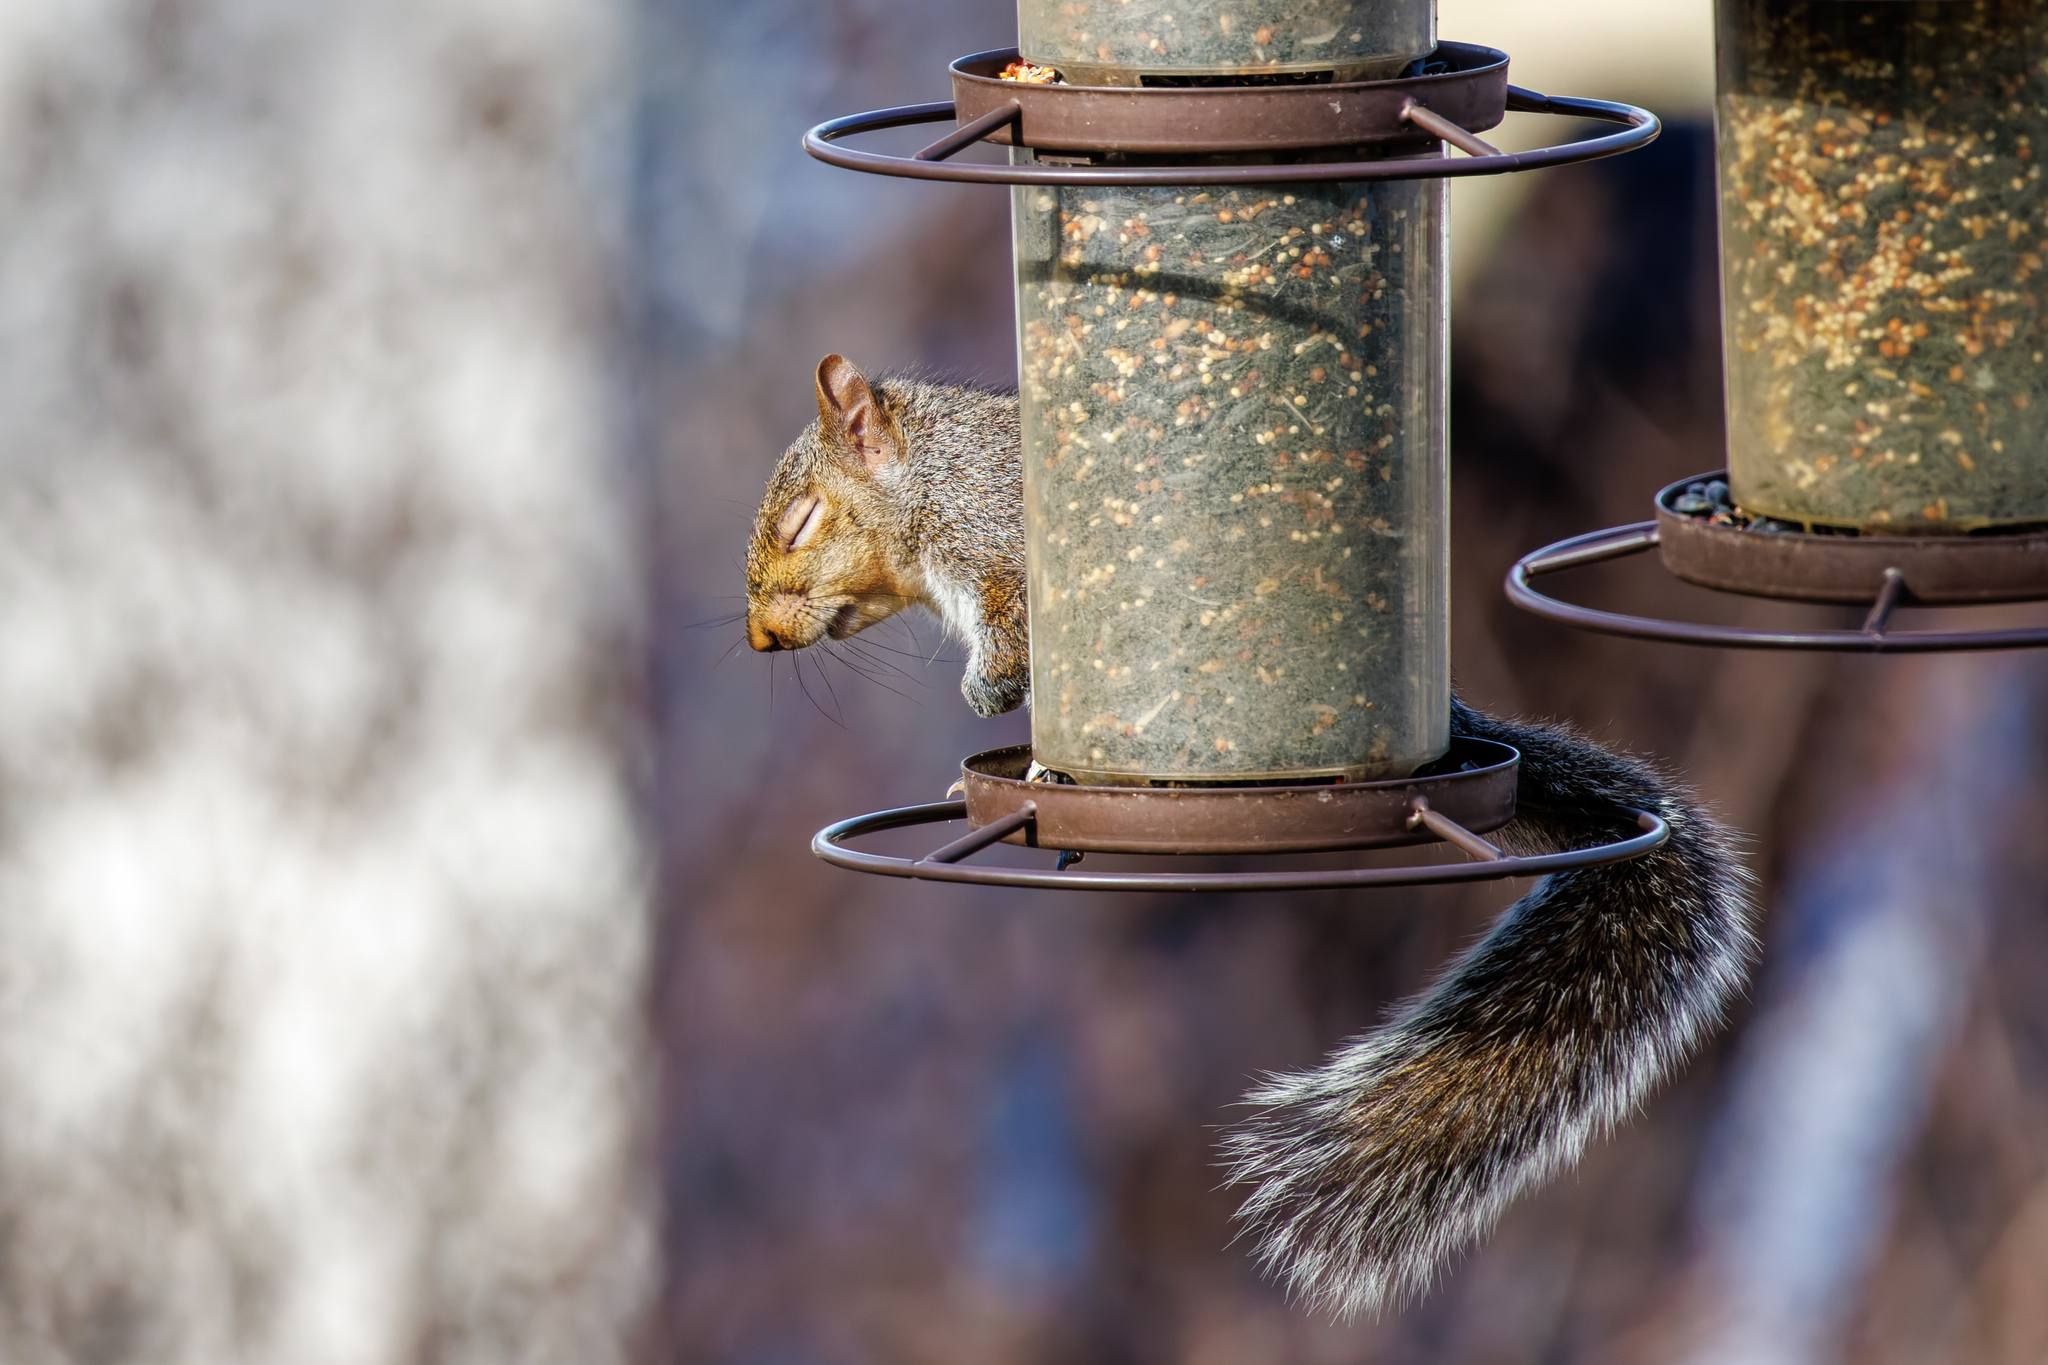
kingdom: Animalia
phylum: Chordata
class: Mammalia
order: Rodentia
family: Sciuridae
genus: Sciurus
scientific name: Sciurus carolinensis
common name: Eastern gray squirrel
